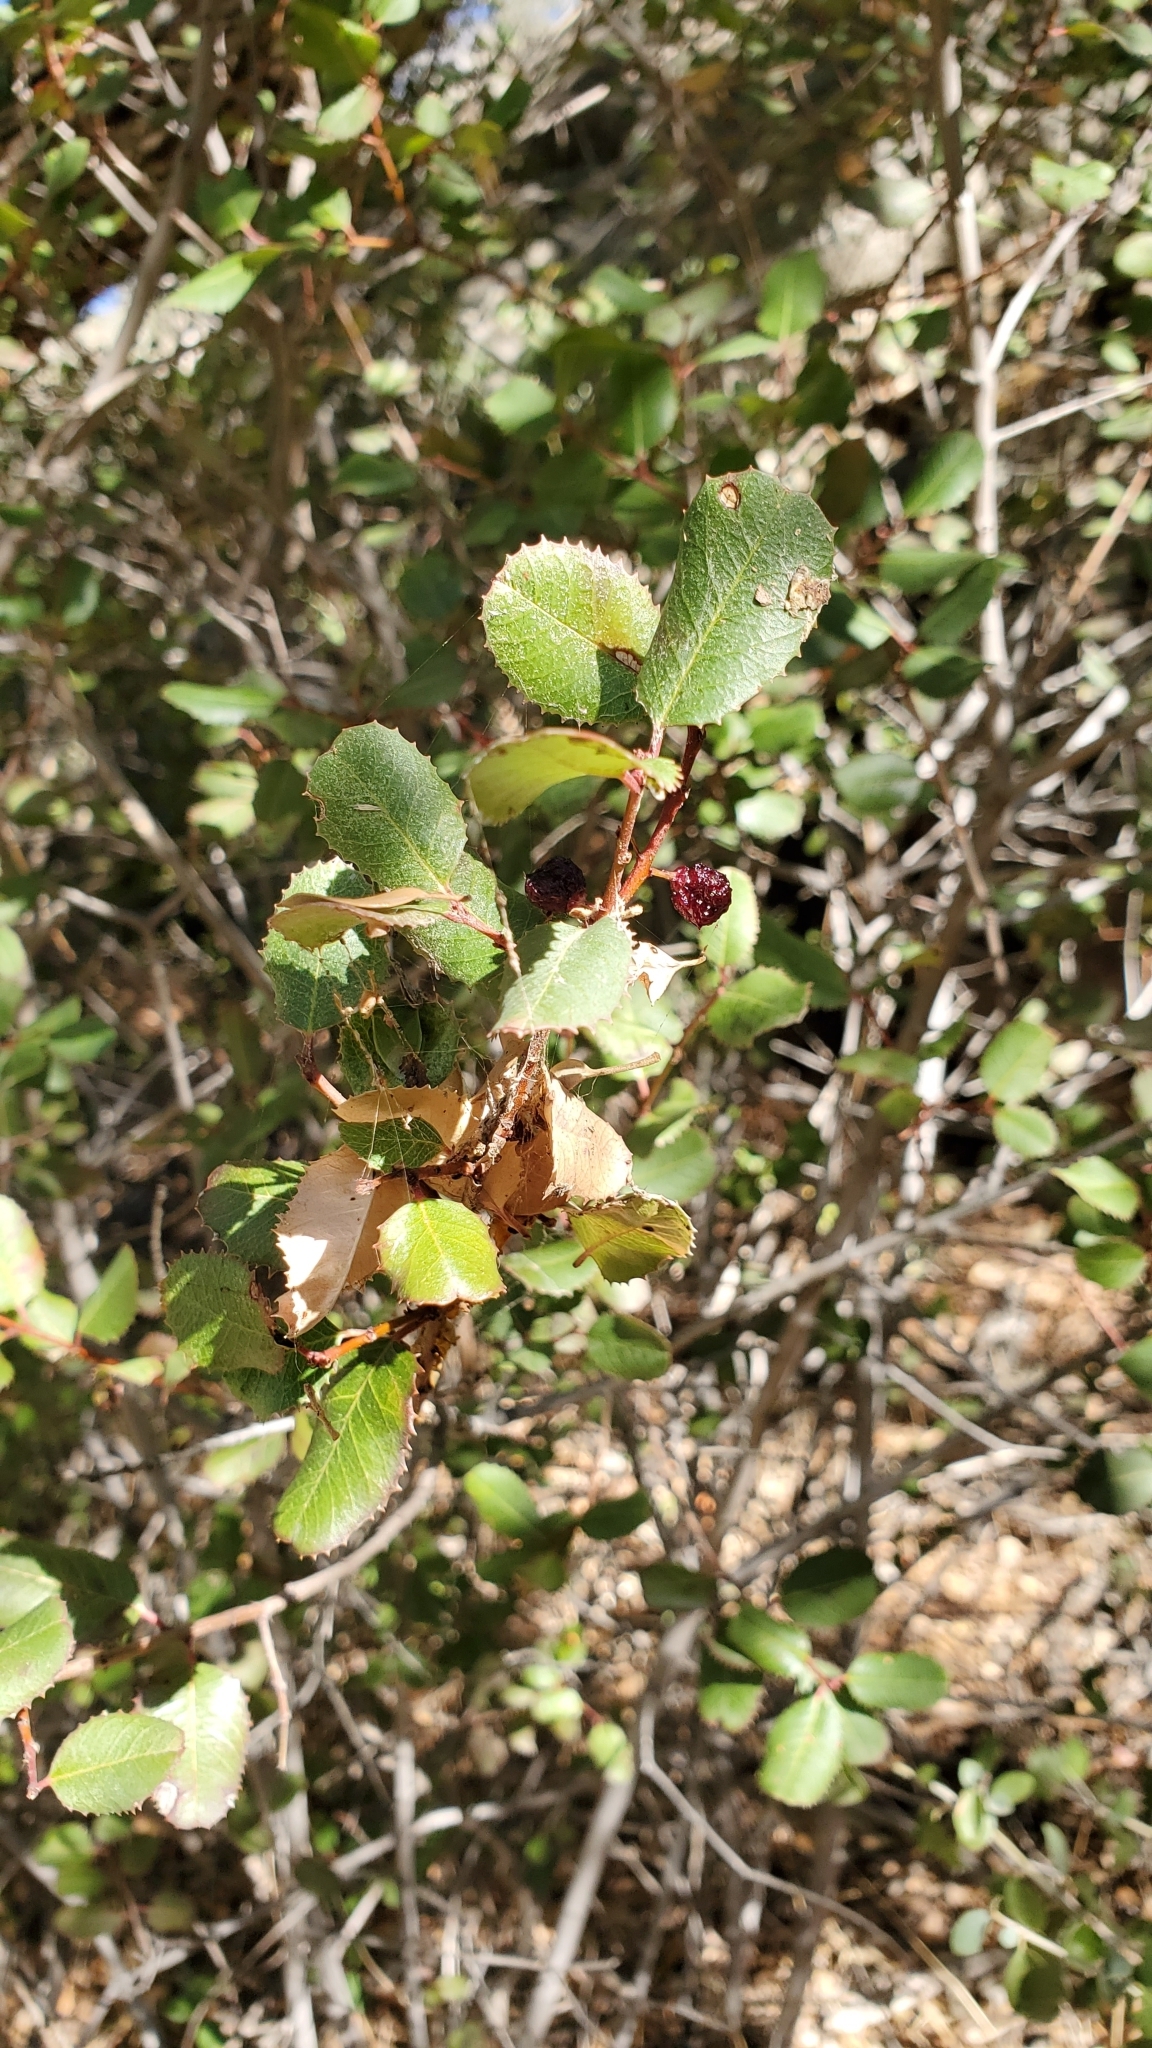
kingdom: Plantae
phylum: Tracheophyta
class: Magnoliopsida
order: Rosales
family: Rhamnaceae
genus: Endotropis
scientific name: Endotropis crocea
